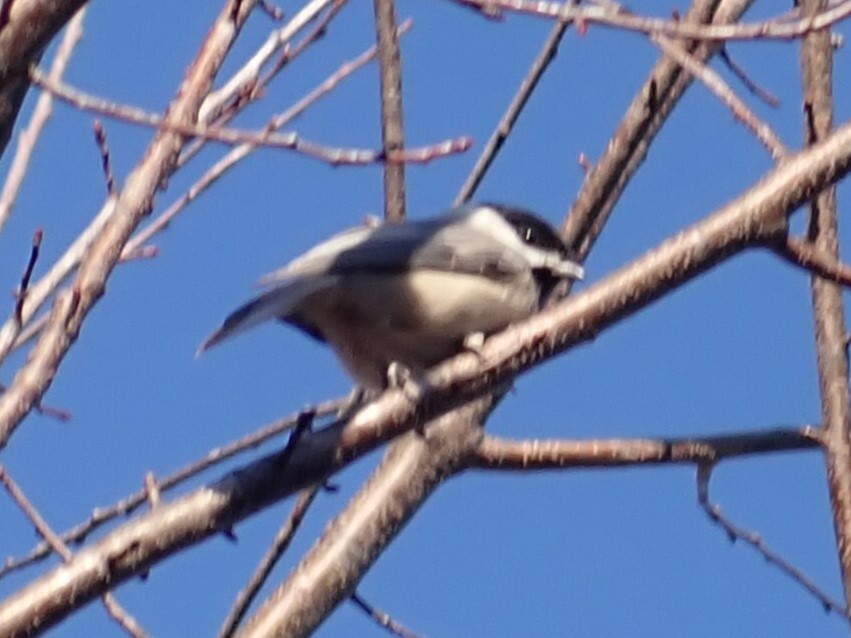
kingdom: Animalia
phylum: Chordata
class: Aves
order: Passeriformes
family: Paridae
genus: Poecile
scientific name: Poecile carolinensis
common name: Carolina chickadee
